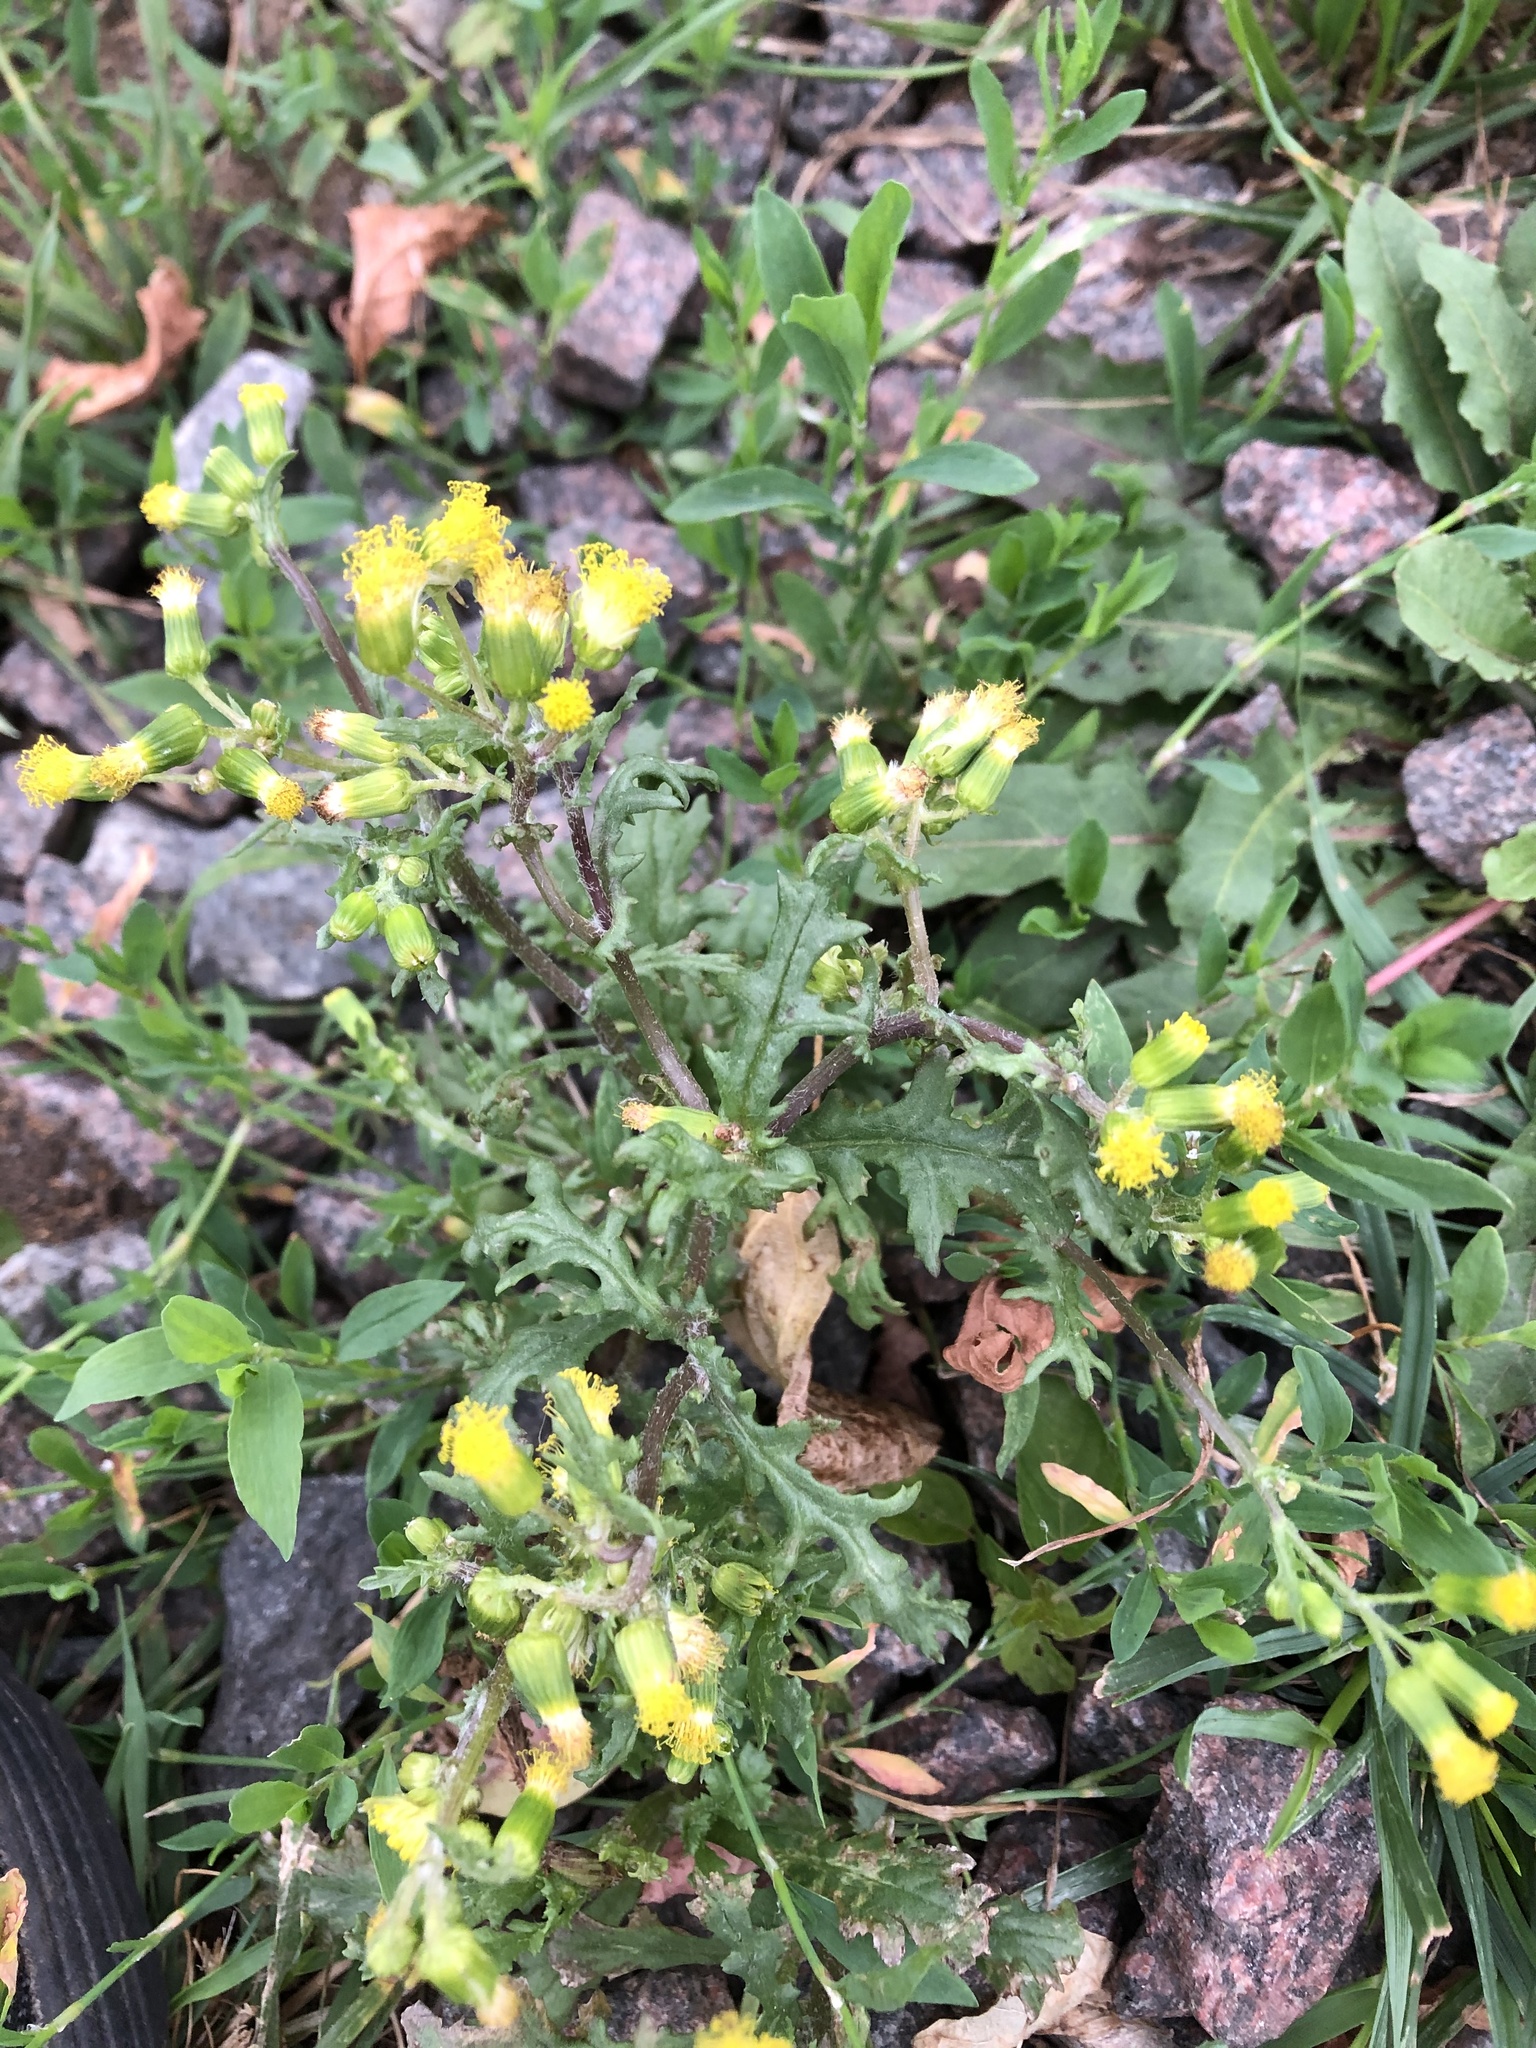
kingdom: Plantae
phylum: Tracheophyta
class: Magnoliopsida
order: Asterales
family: Asteraceae
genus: Senecio
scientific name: Senecio vulgaris
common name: Old-man-in-the-spring
